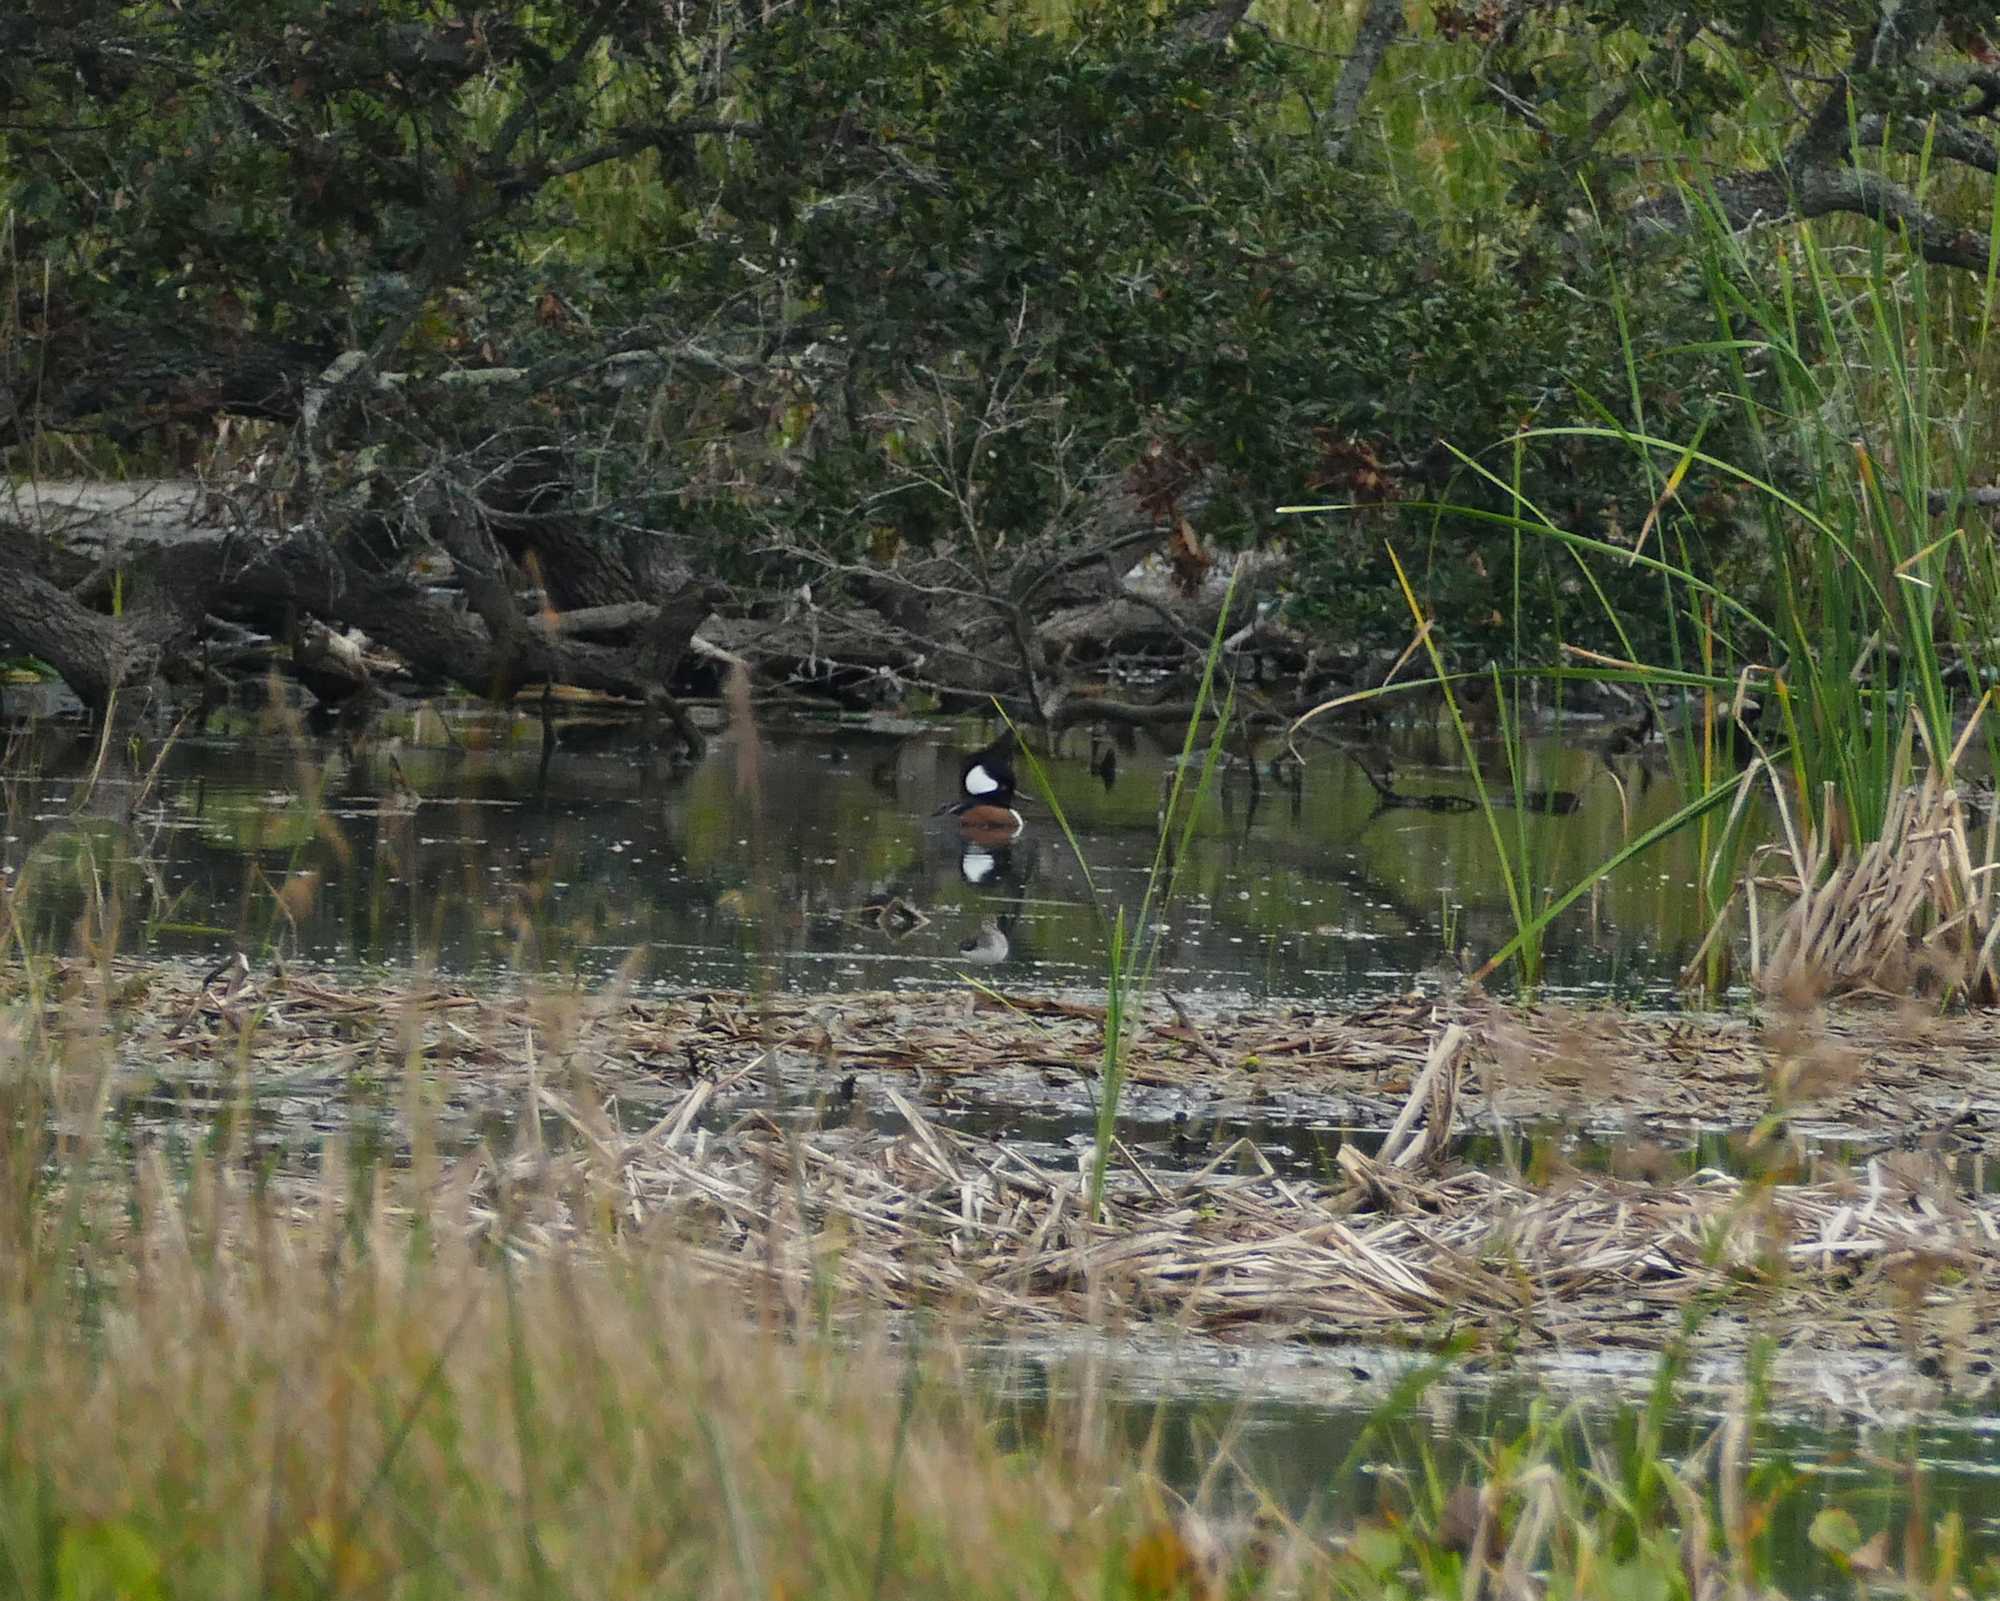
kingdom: Animalia
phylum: Chordata
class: Aves
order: Anseriformes
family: Anatidae
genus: Lophodytes
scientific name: Lophodytes cucullatus
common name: Hooded merganser
